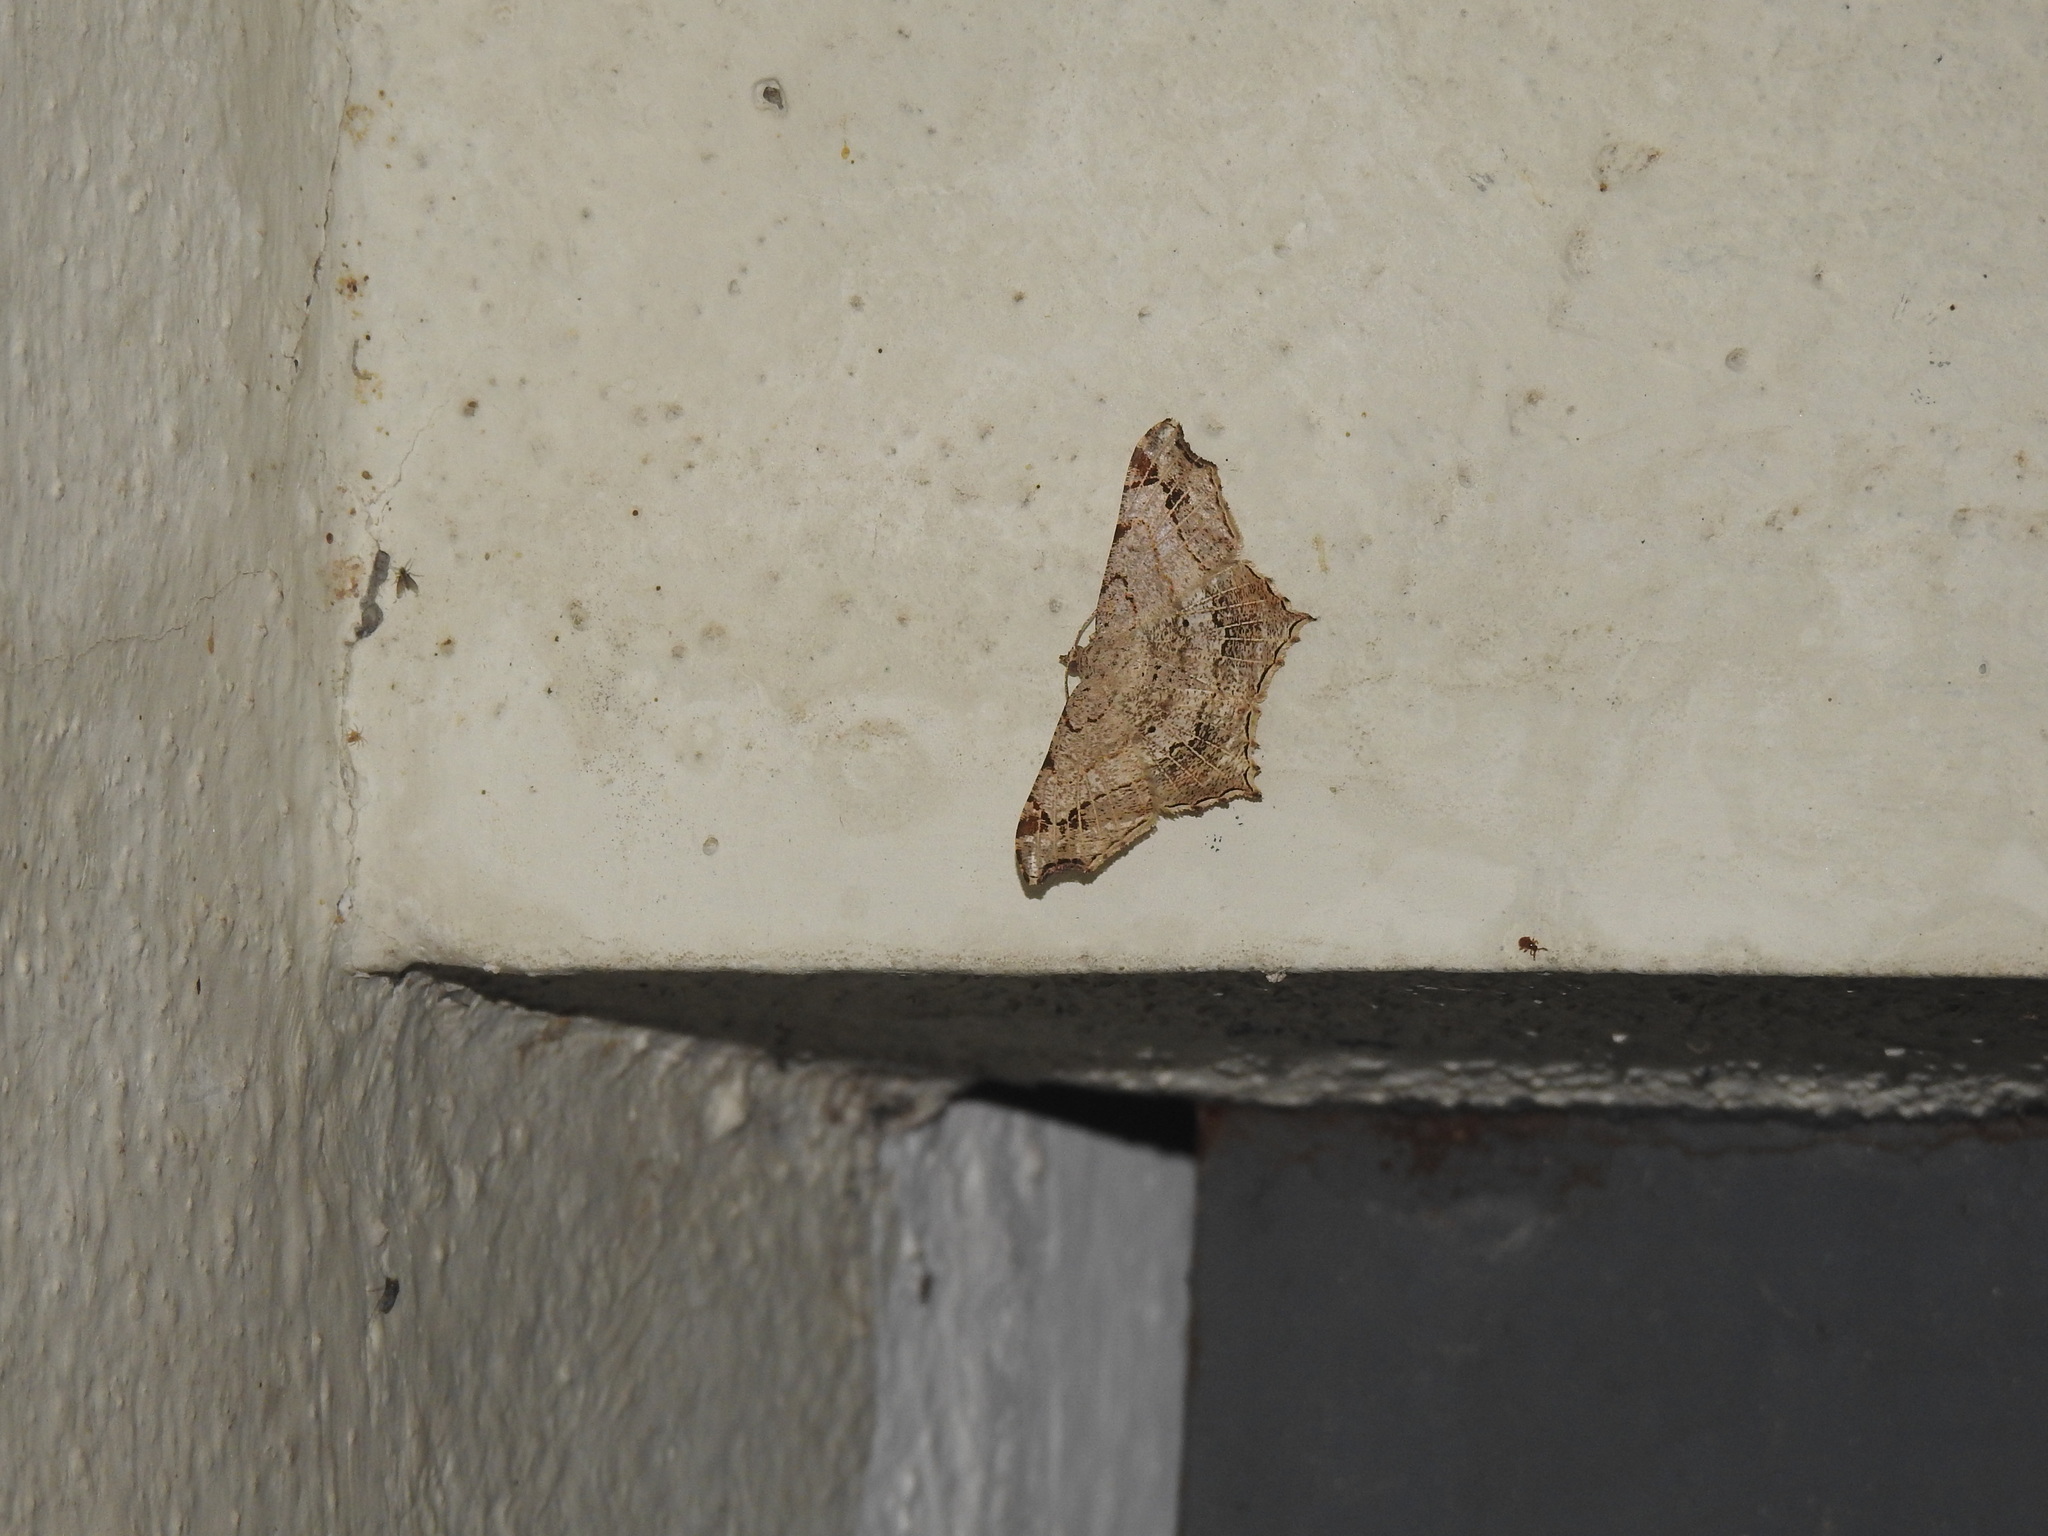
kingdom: Animalia
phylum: Arthropoda
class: Insecta
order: Lepidoptera
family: Geometridae
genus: Chiasmia
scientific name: Chiasmia emersaria
